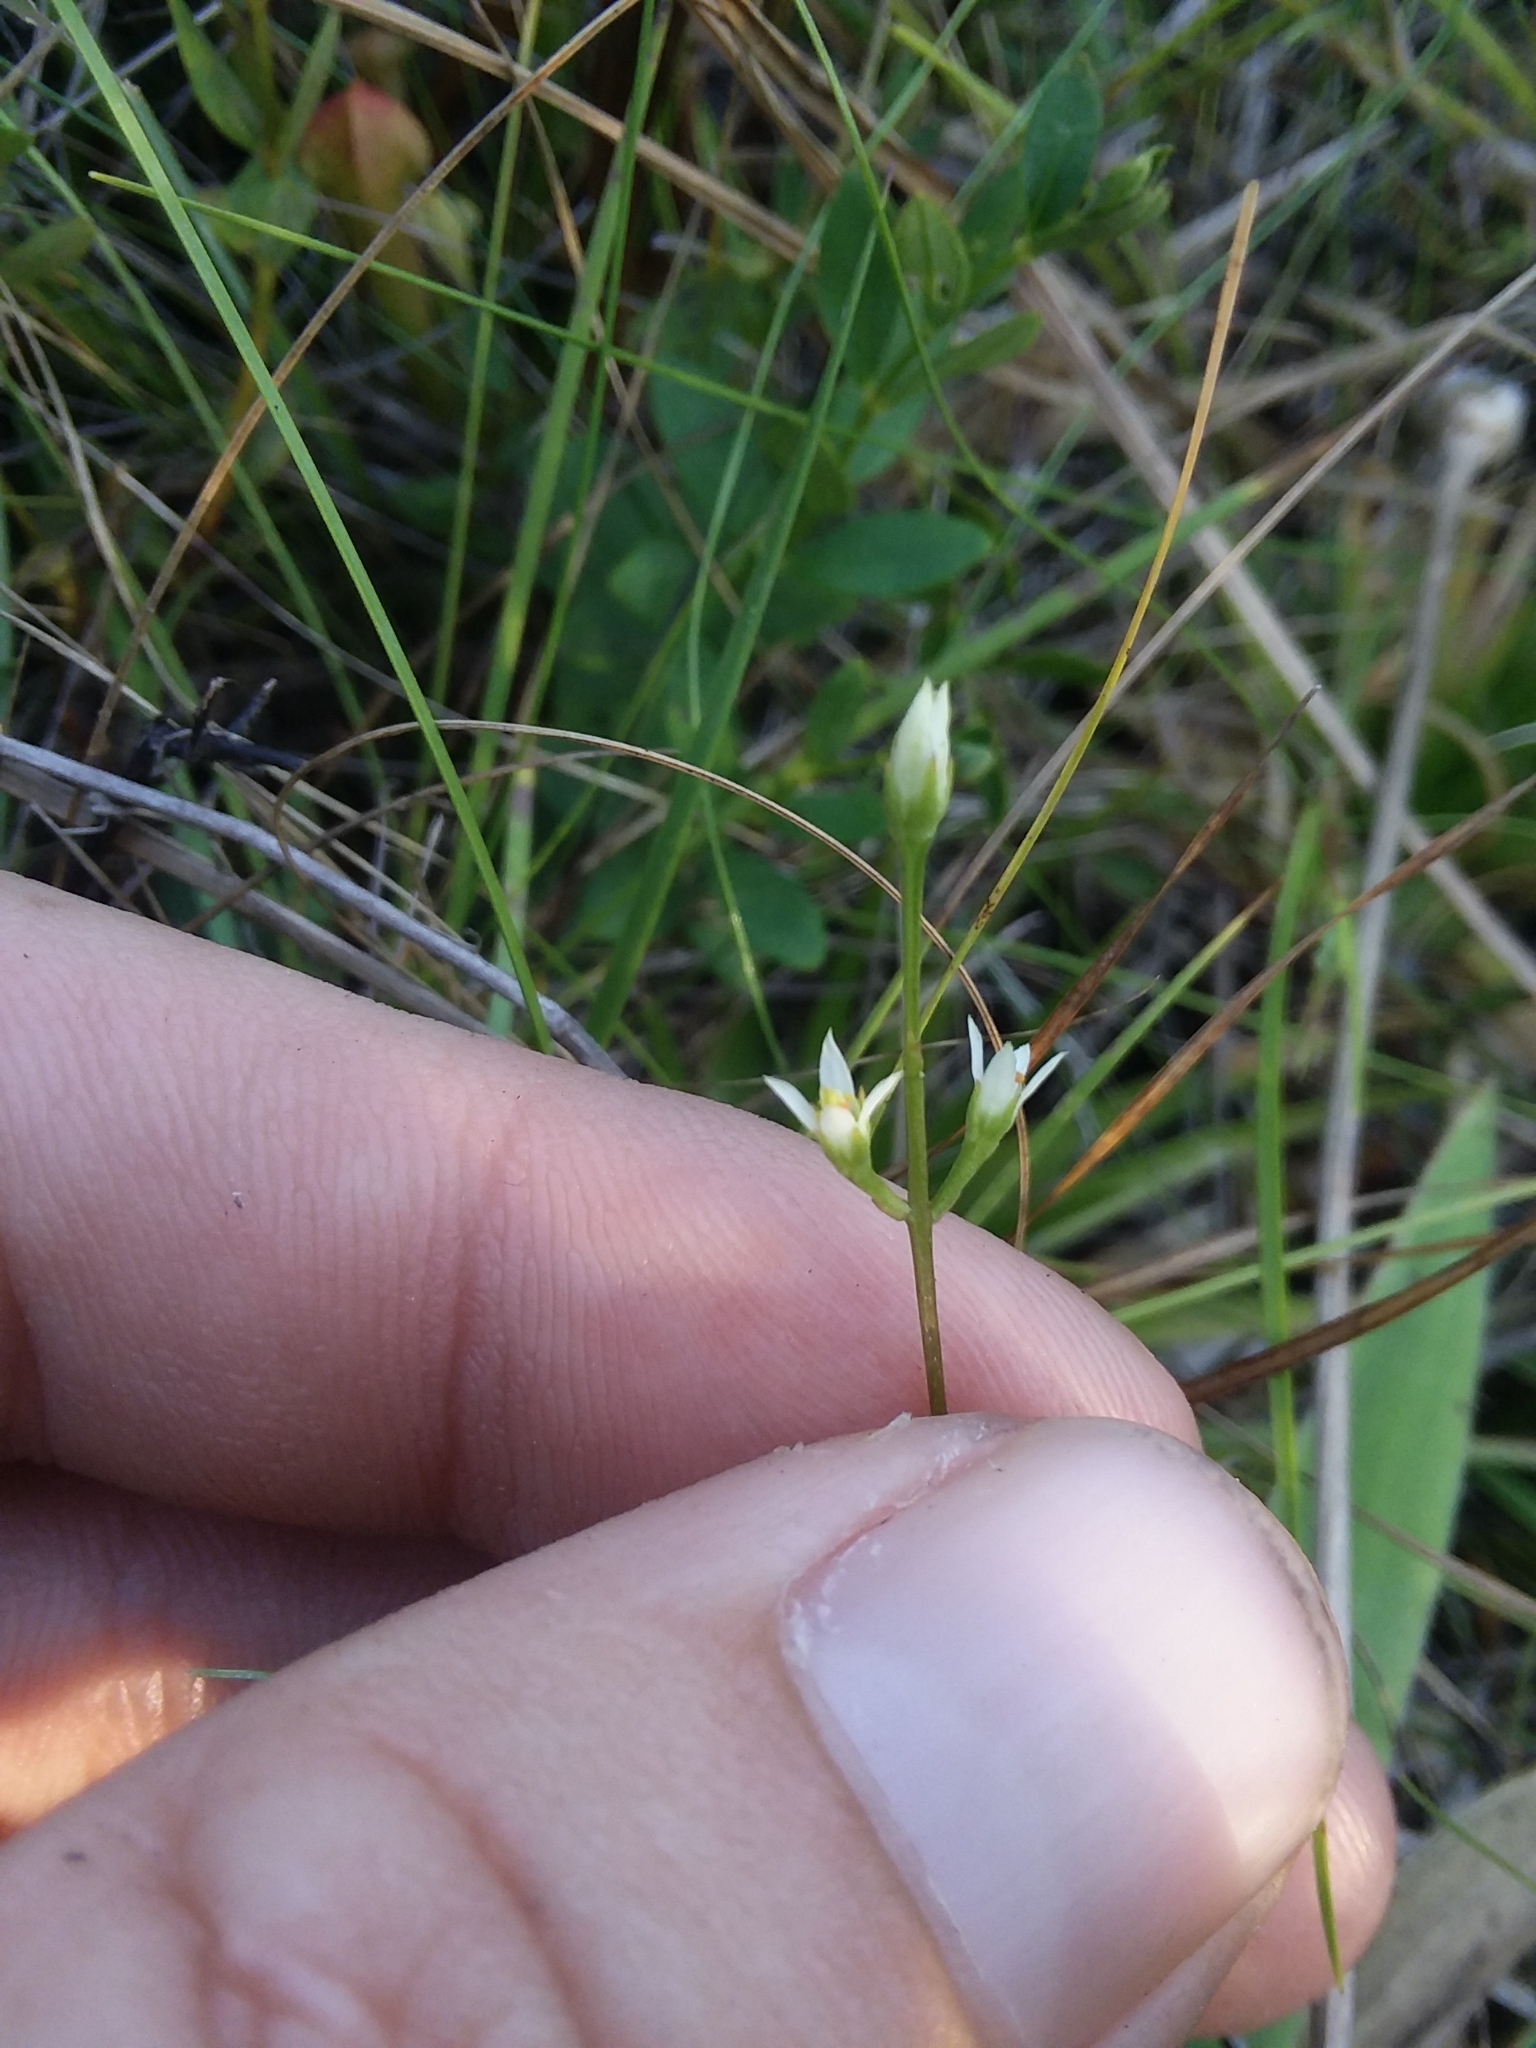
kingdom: Plantae
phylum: Tracheophyta
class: Magnoliopsida
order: Gentianales
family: Gentianaceae
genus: Bartonia
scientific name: Bartonia paniculata
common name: Branched bartonia
